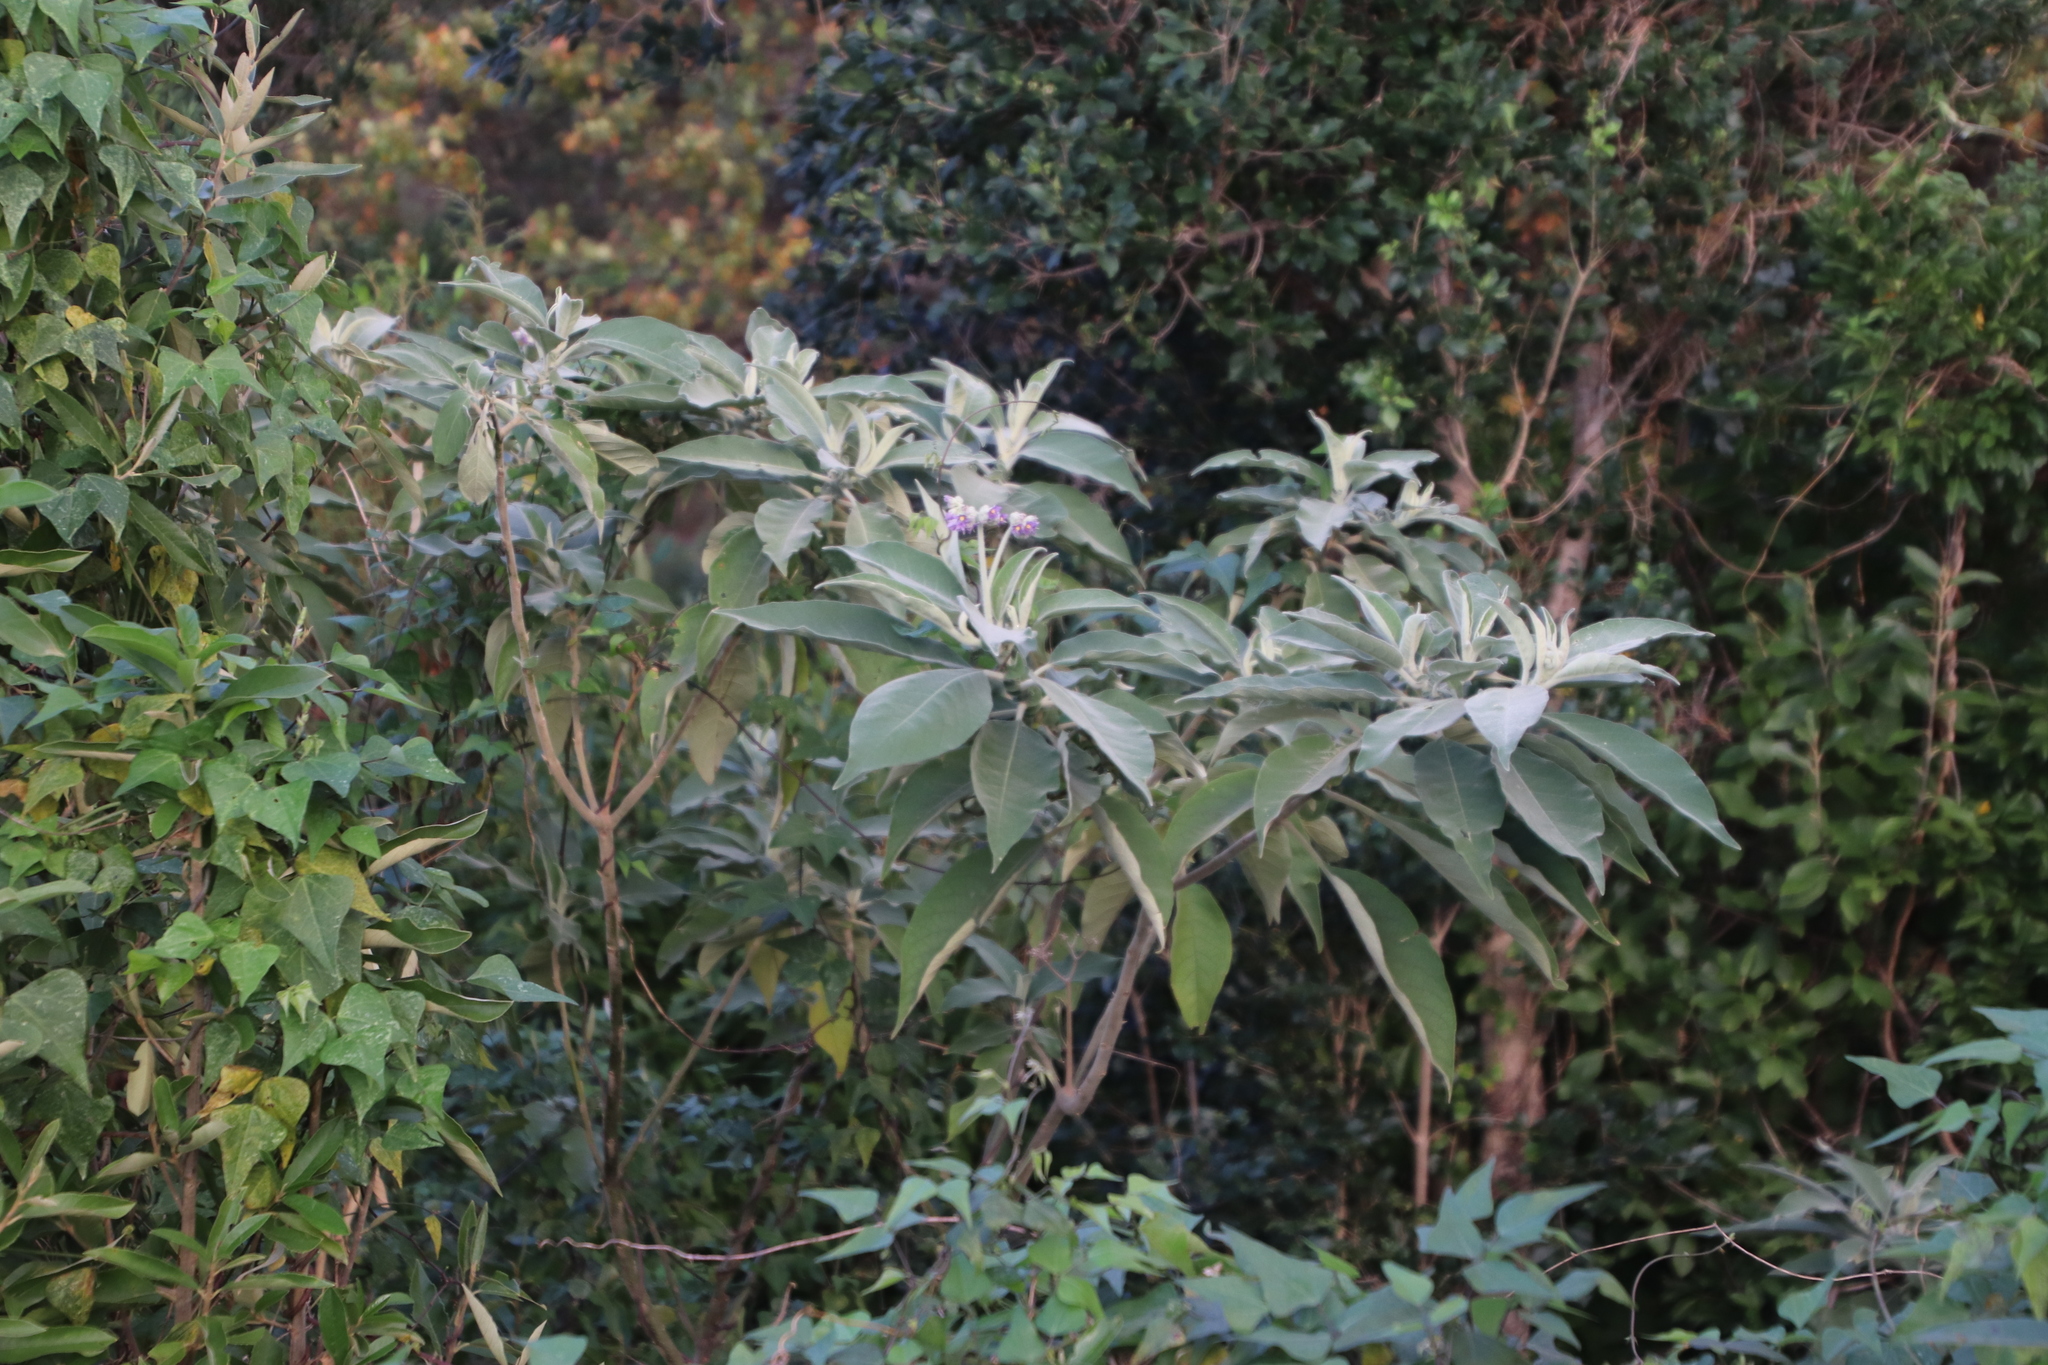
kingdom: Plantae
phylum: Tracheophyta
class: Magnoliopsida
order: Solanales
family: Solanaceae
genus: Solanum
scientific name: Solanum mauritianum
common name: Earleaf nightshade
